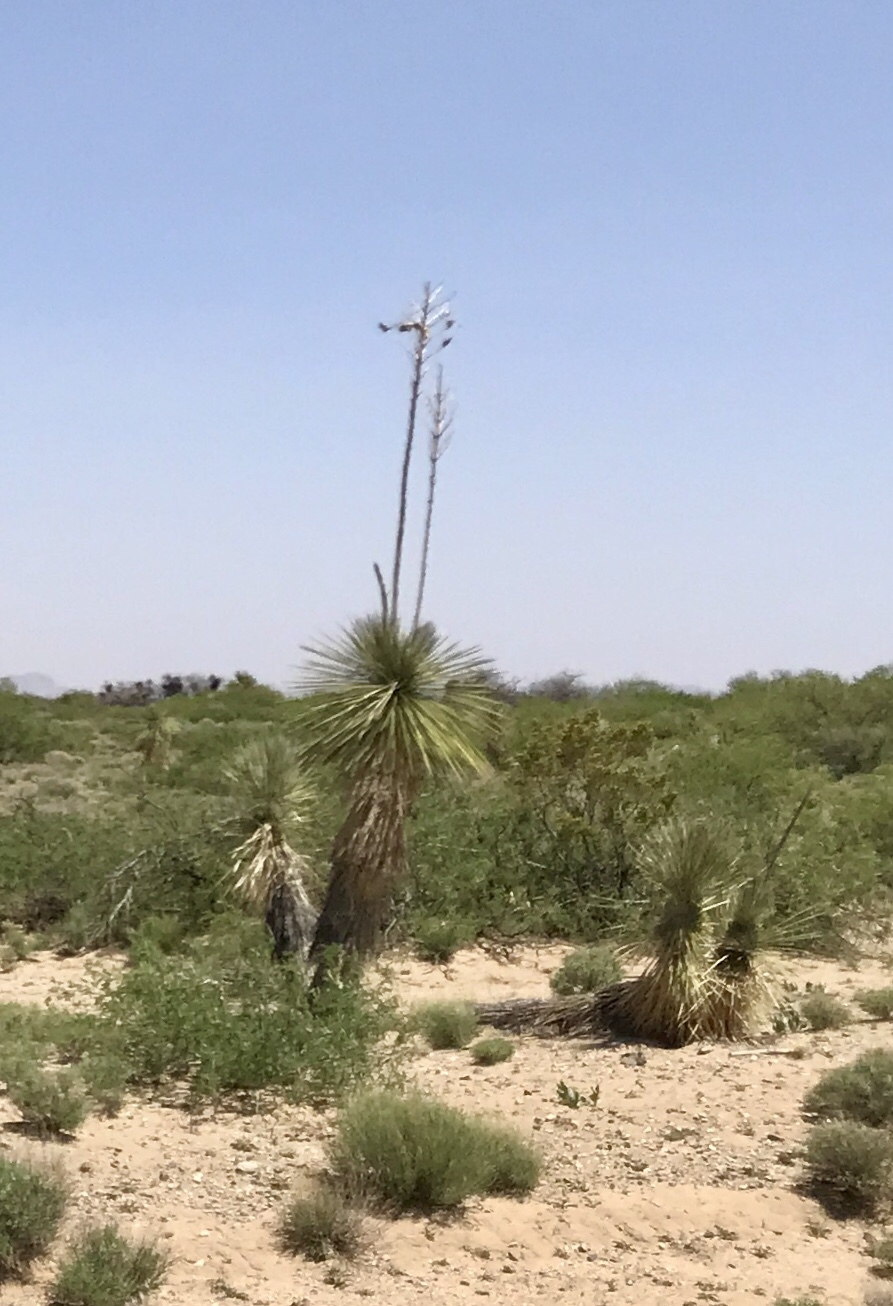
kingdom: Plantae
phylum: Tracheophyta
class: Liliopsida
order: Asparagales
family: Asparagaceae
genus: Yucca
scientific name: Yucca elata
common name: Palmella
